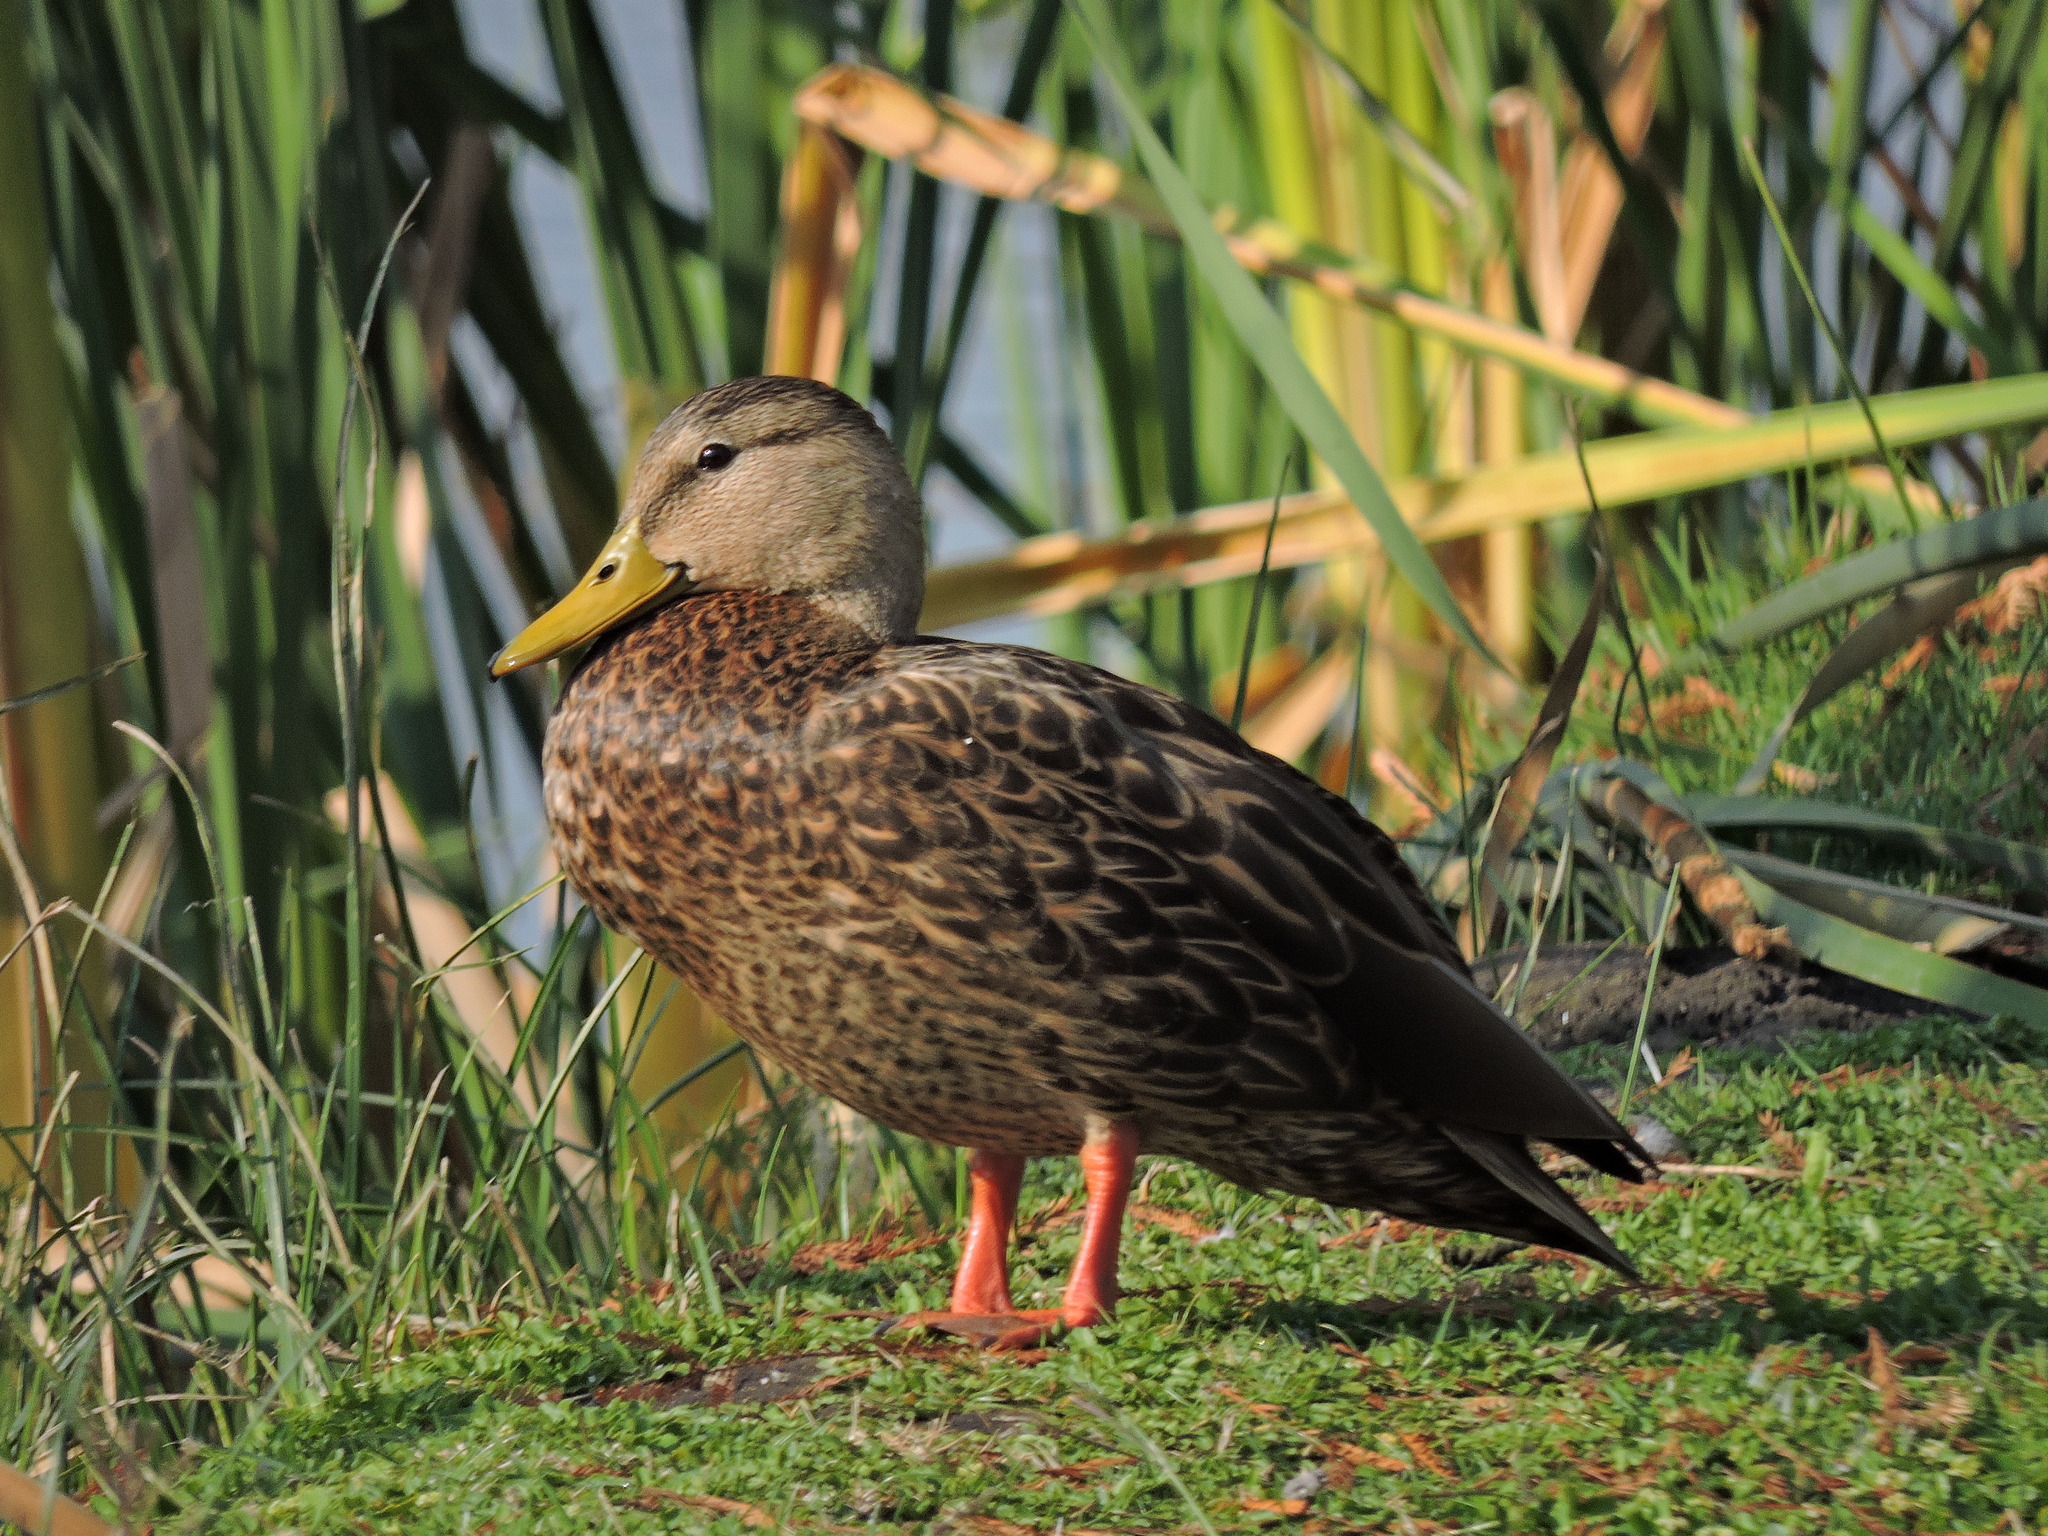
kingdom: Animalia
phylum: Chordata
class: Aves
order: Anseriformes
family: Anatidae
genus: Anas
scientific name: Anas diazi
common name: Mexican duck
